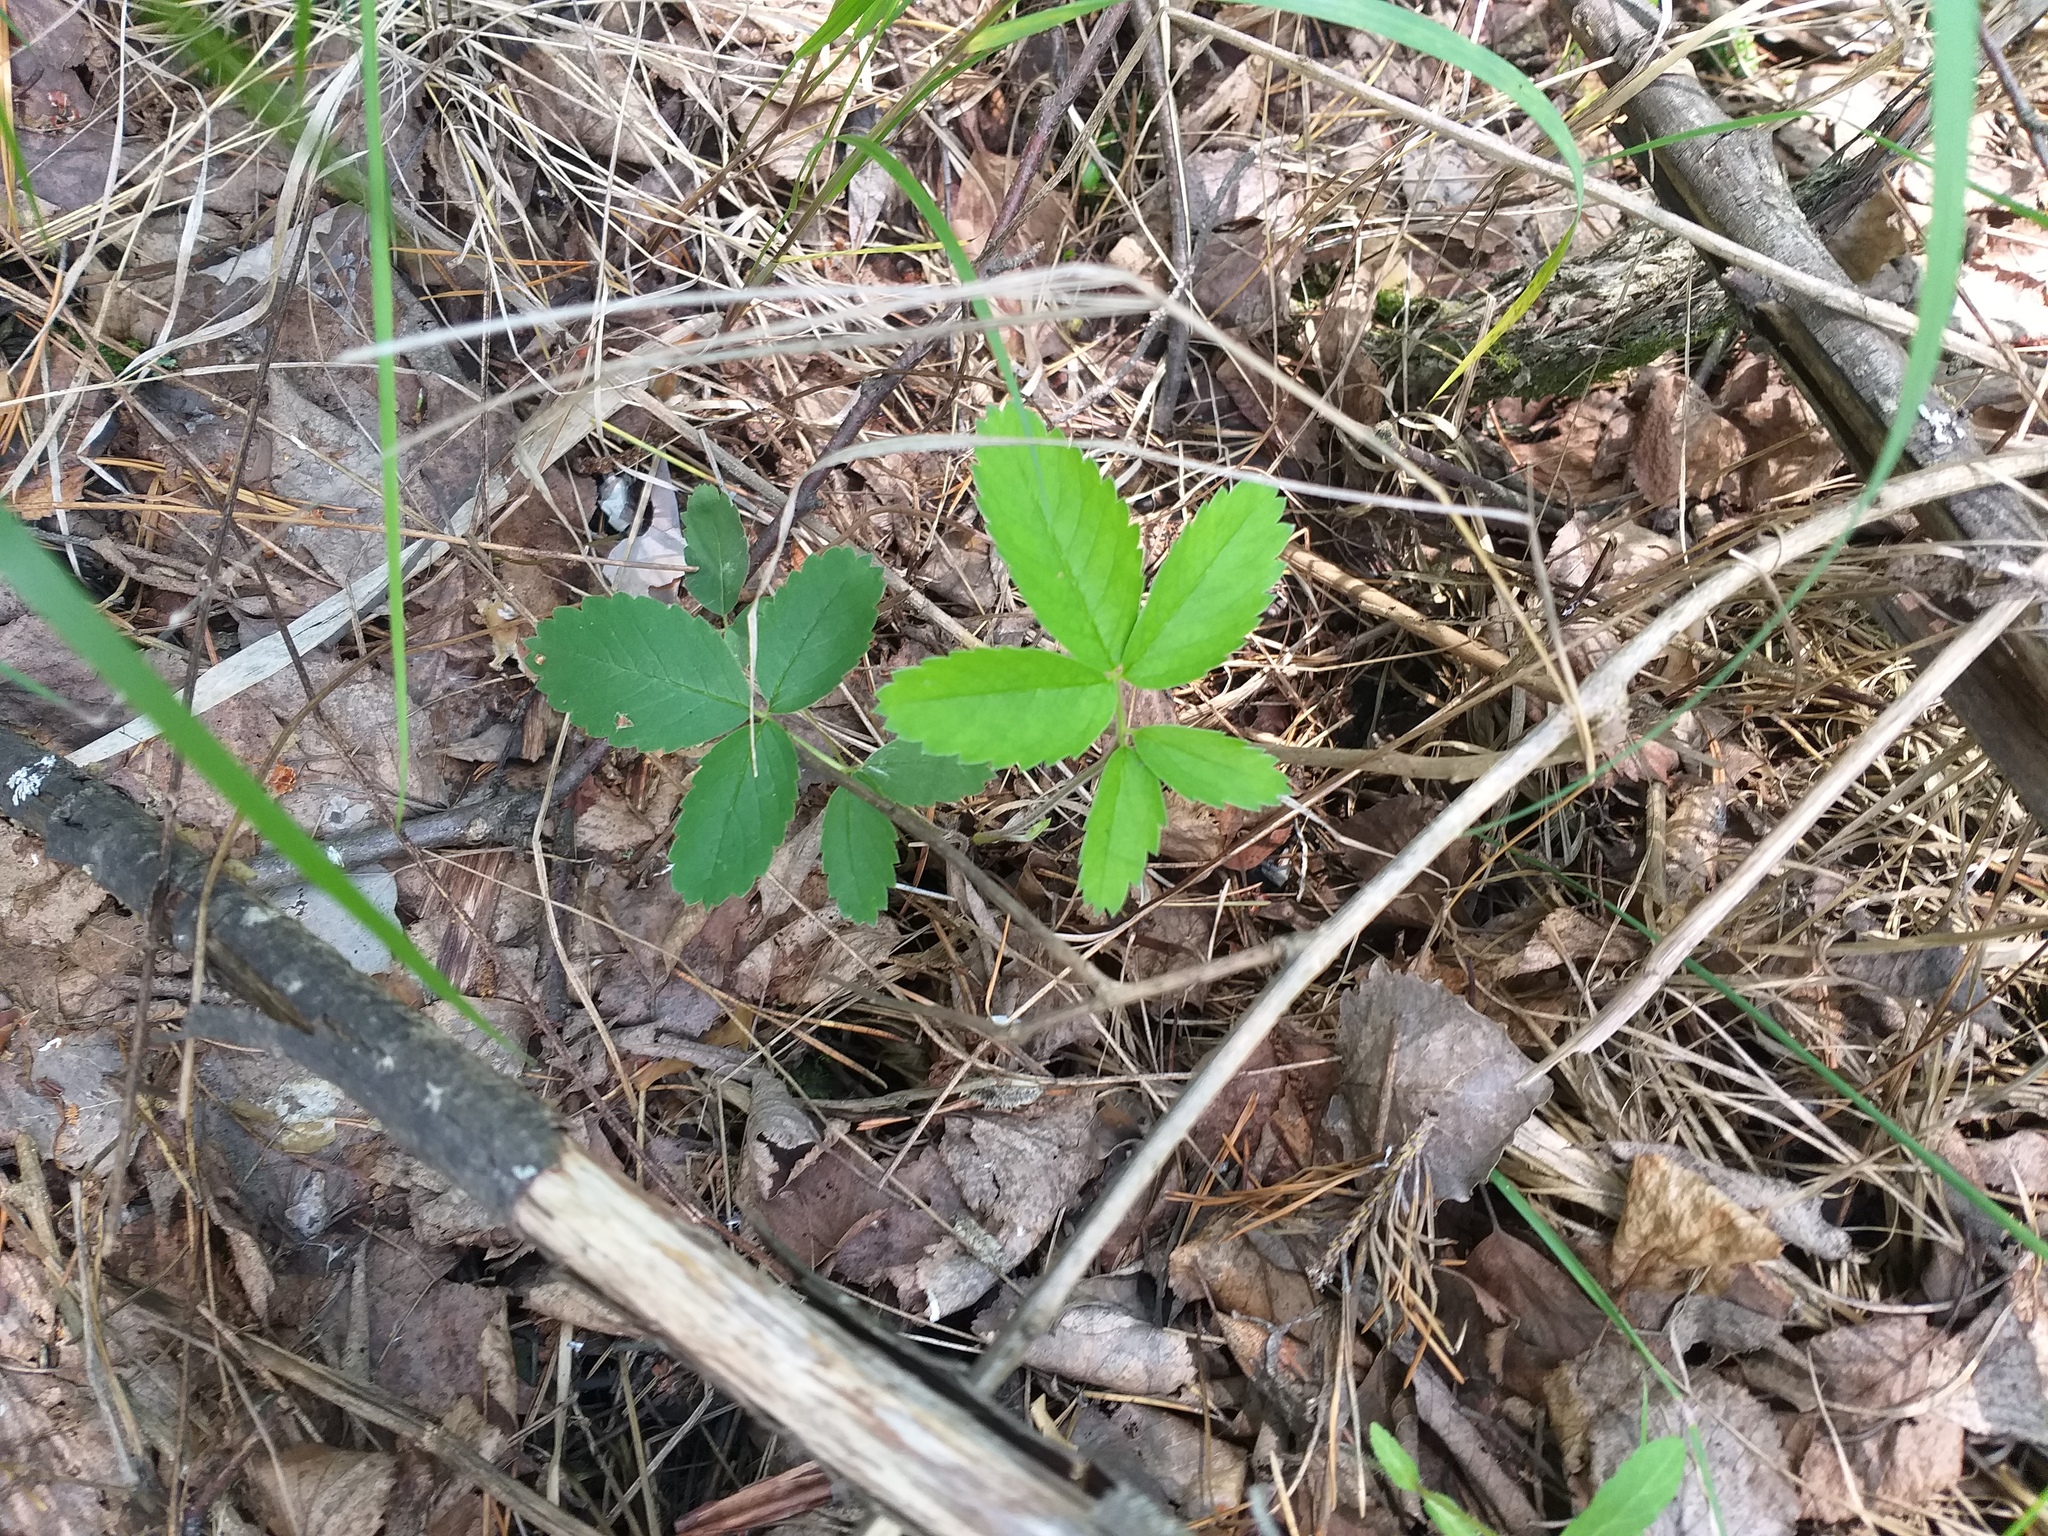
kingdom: Plantae
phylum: Tracheophyta
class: Magnoliopsida
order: Rosales
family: Rosaceae
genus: Comarum
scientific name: Comarum palustre
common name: Marsh cinquefoil
